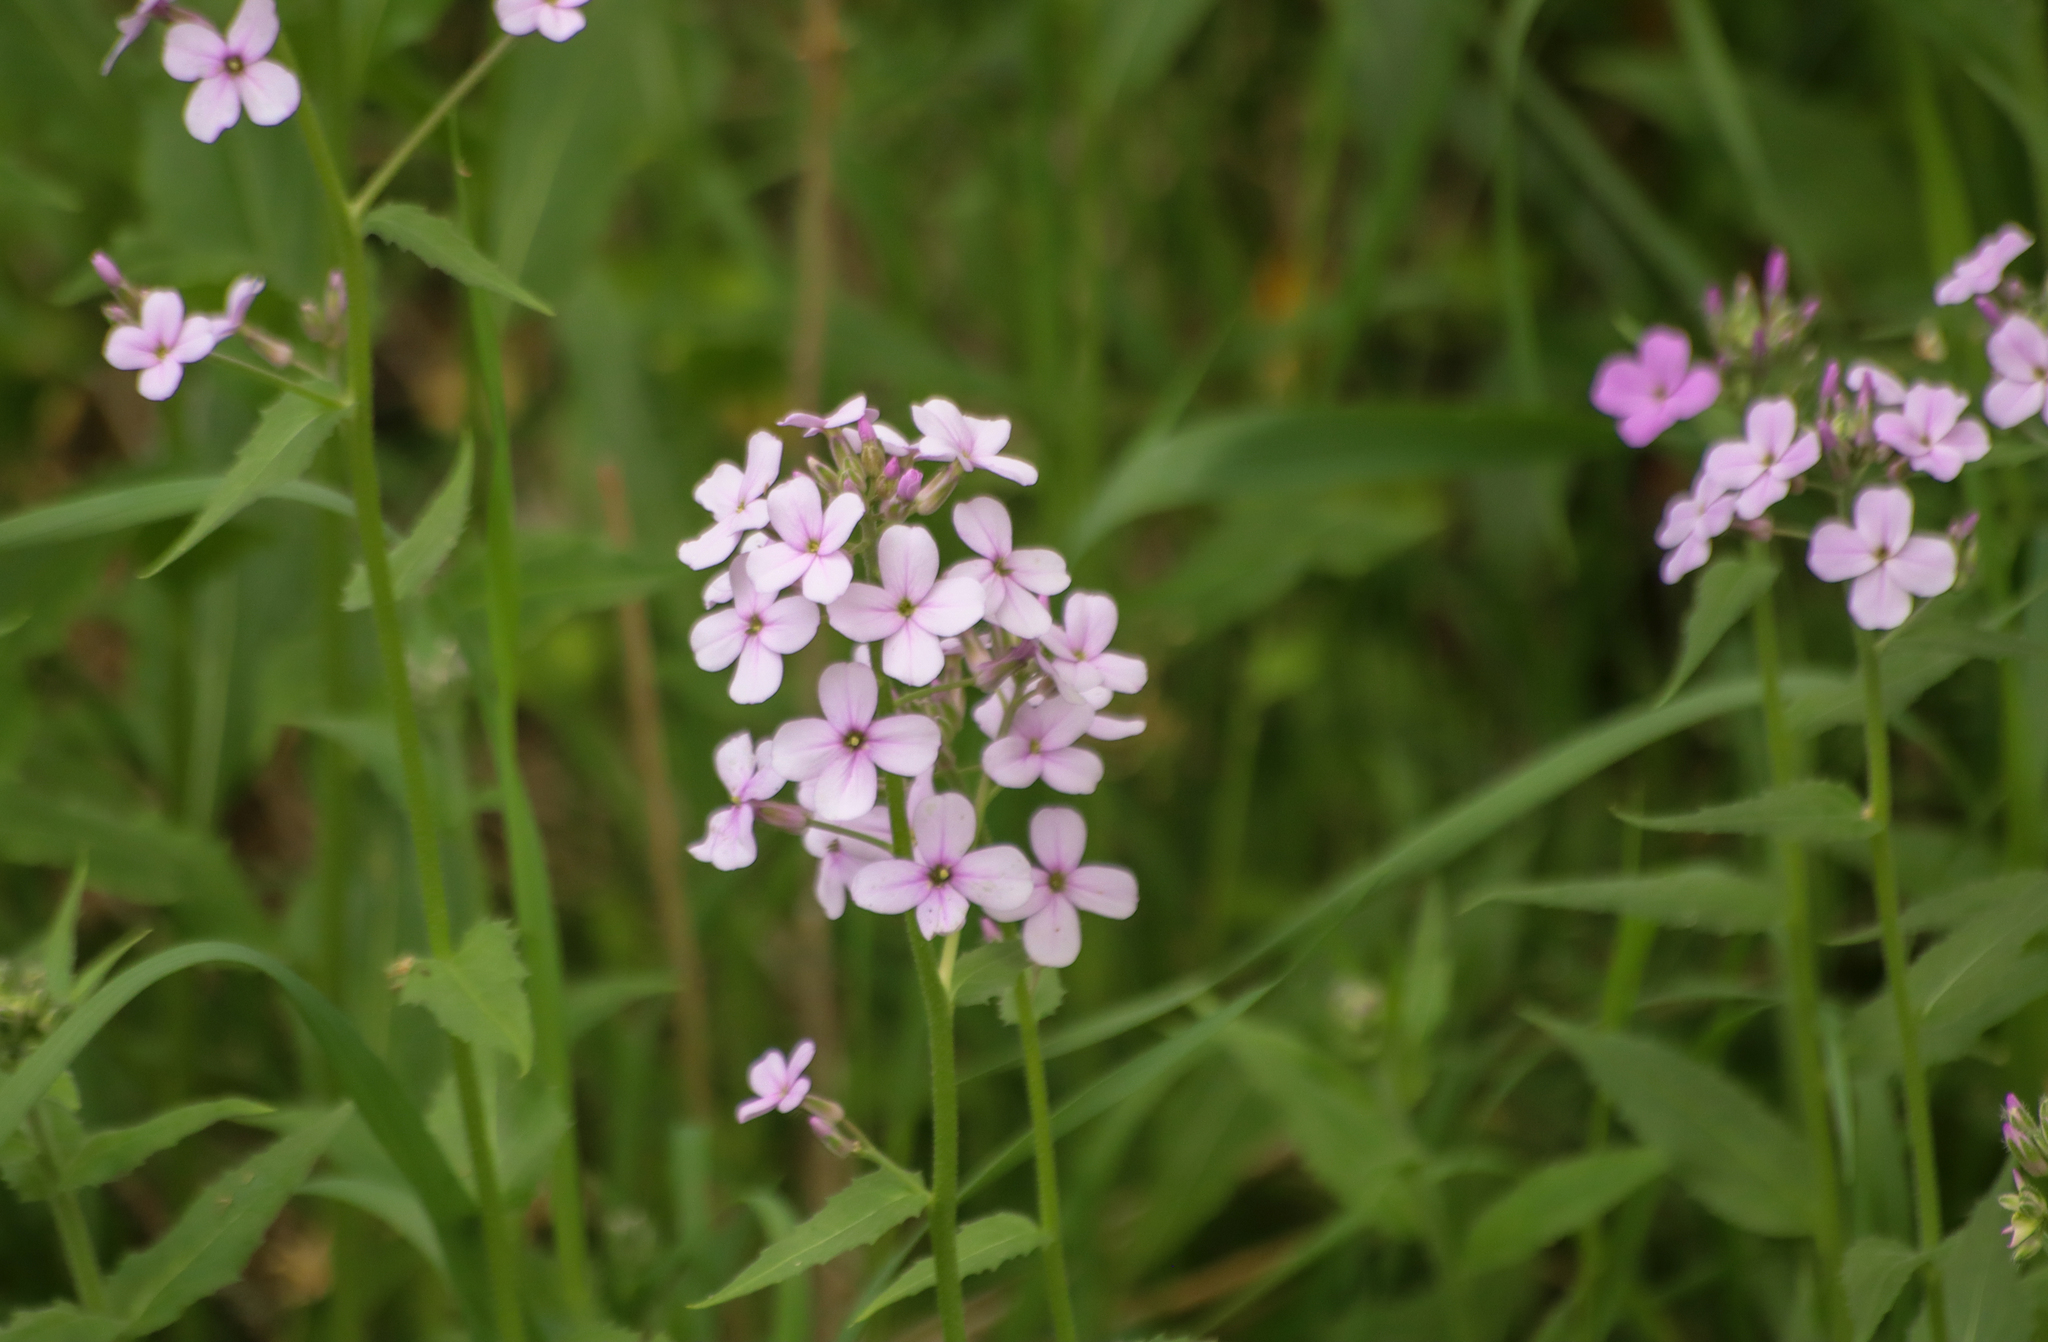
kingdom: Plantae
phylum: Tracheophyta
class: Magnoliopsida
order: Brassicales
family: Brassicaceae
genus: Hesperis
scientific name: Hesperis matronalis
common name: Dame's-violet
